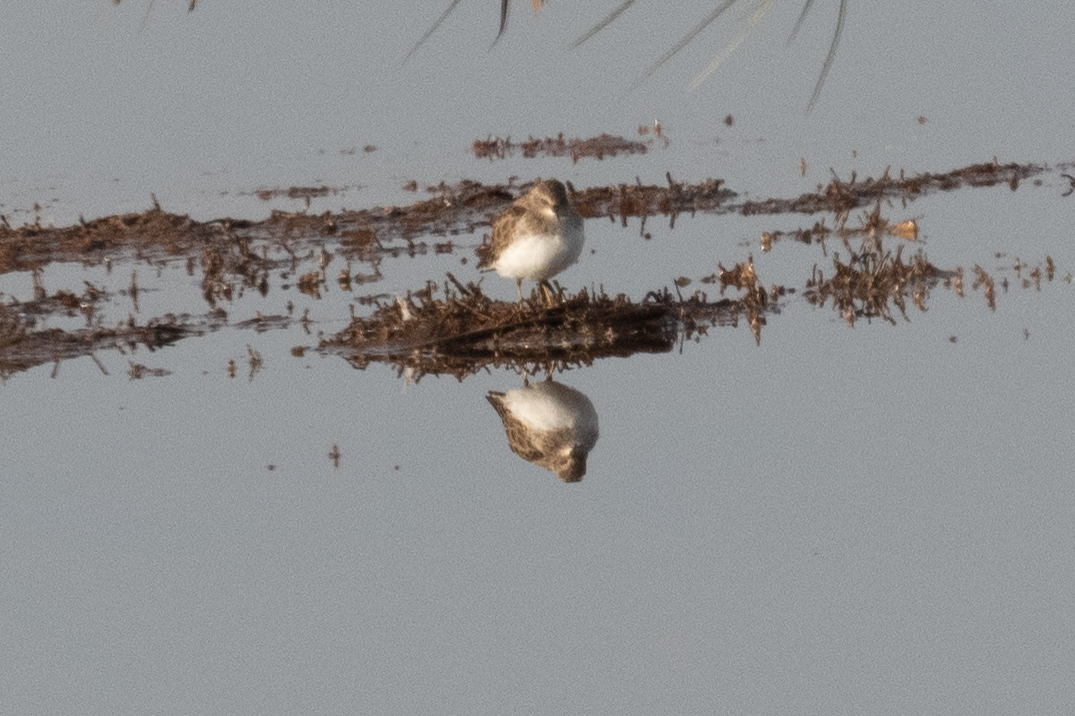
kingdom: Animalia
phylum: Chordata
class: Aves
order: Charadriiformes
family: Scolopacidae
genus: Calidris
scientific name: Calidris minutilla
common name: Least sandpiper
